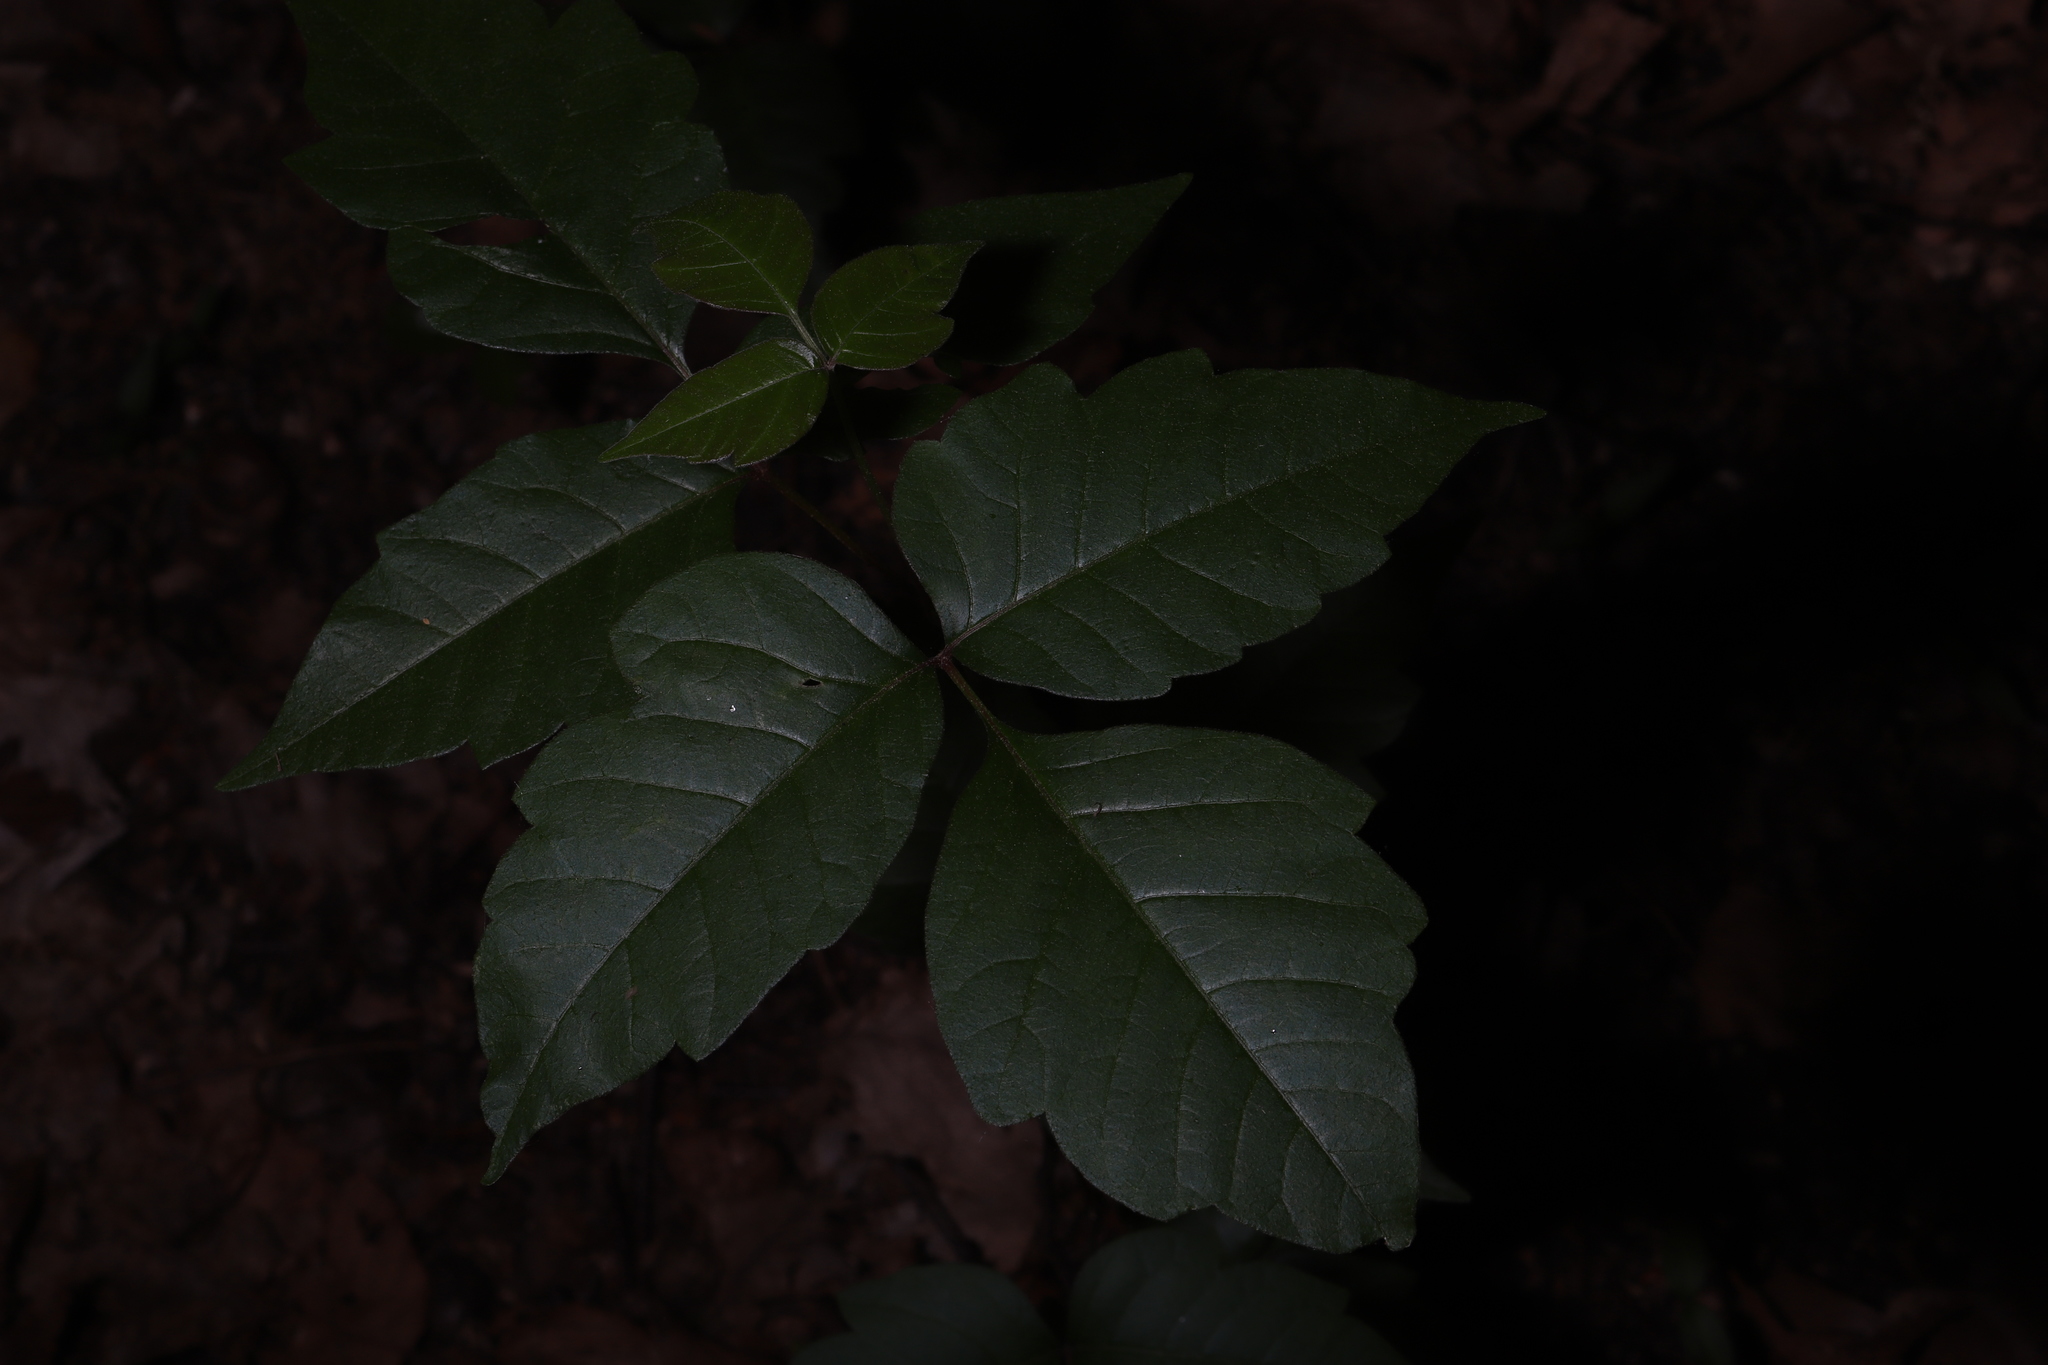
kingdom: Plantae
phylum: Tracheophyta
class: Magnoliopsida
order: Sapindales
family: Anacardiaceae
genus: Toxicodendron
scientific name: Toxicodendron radicans
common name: Poison ivy
